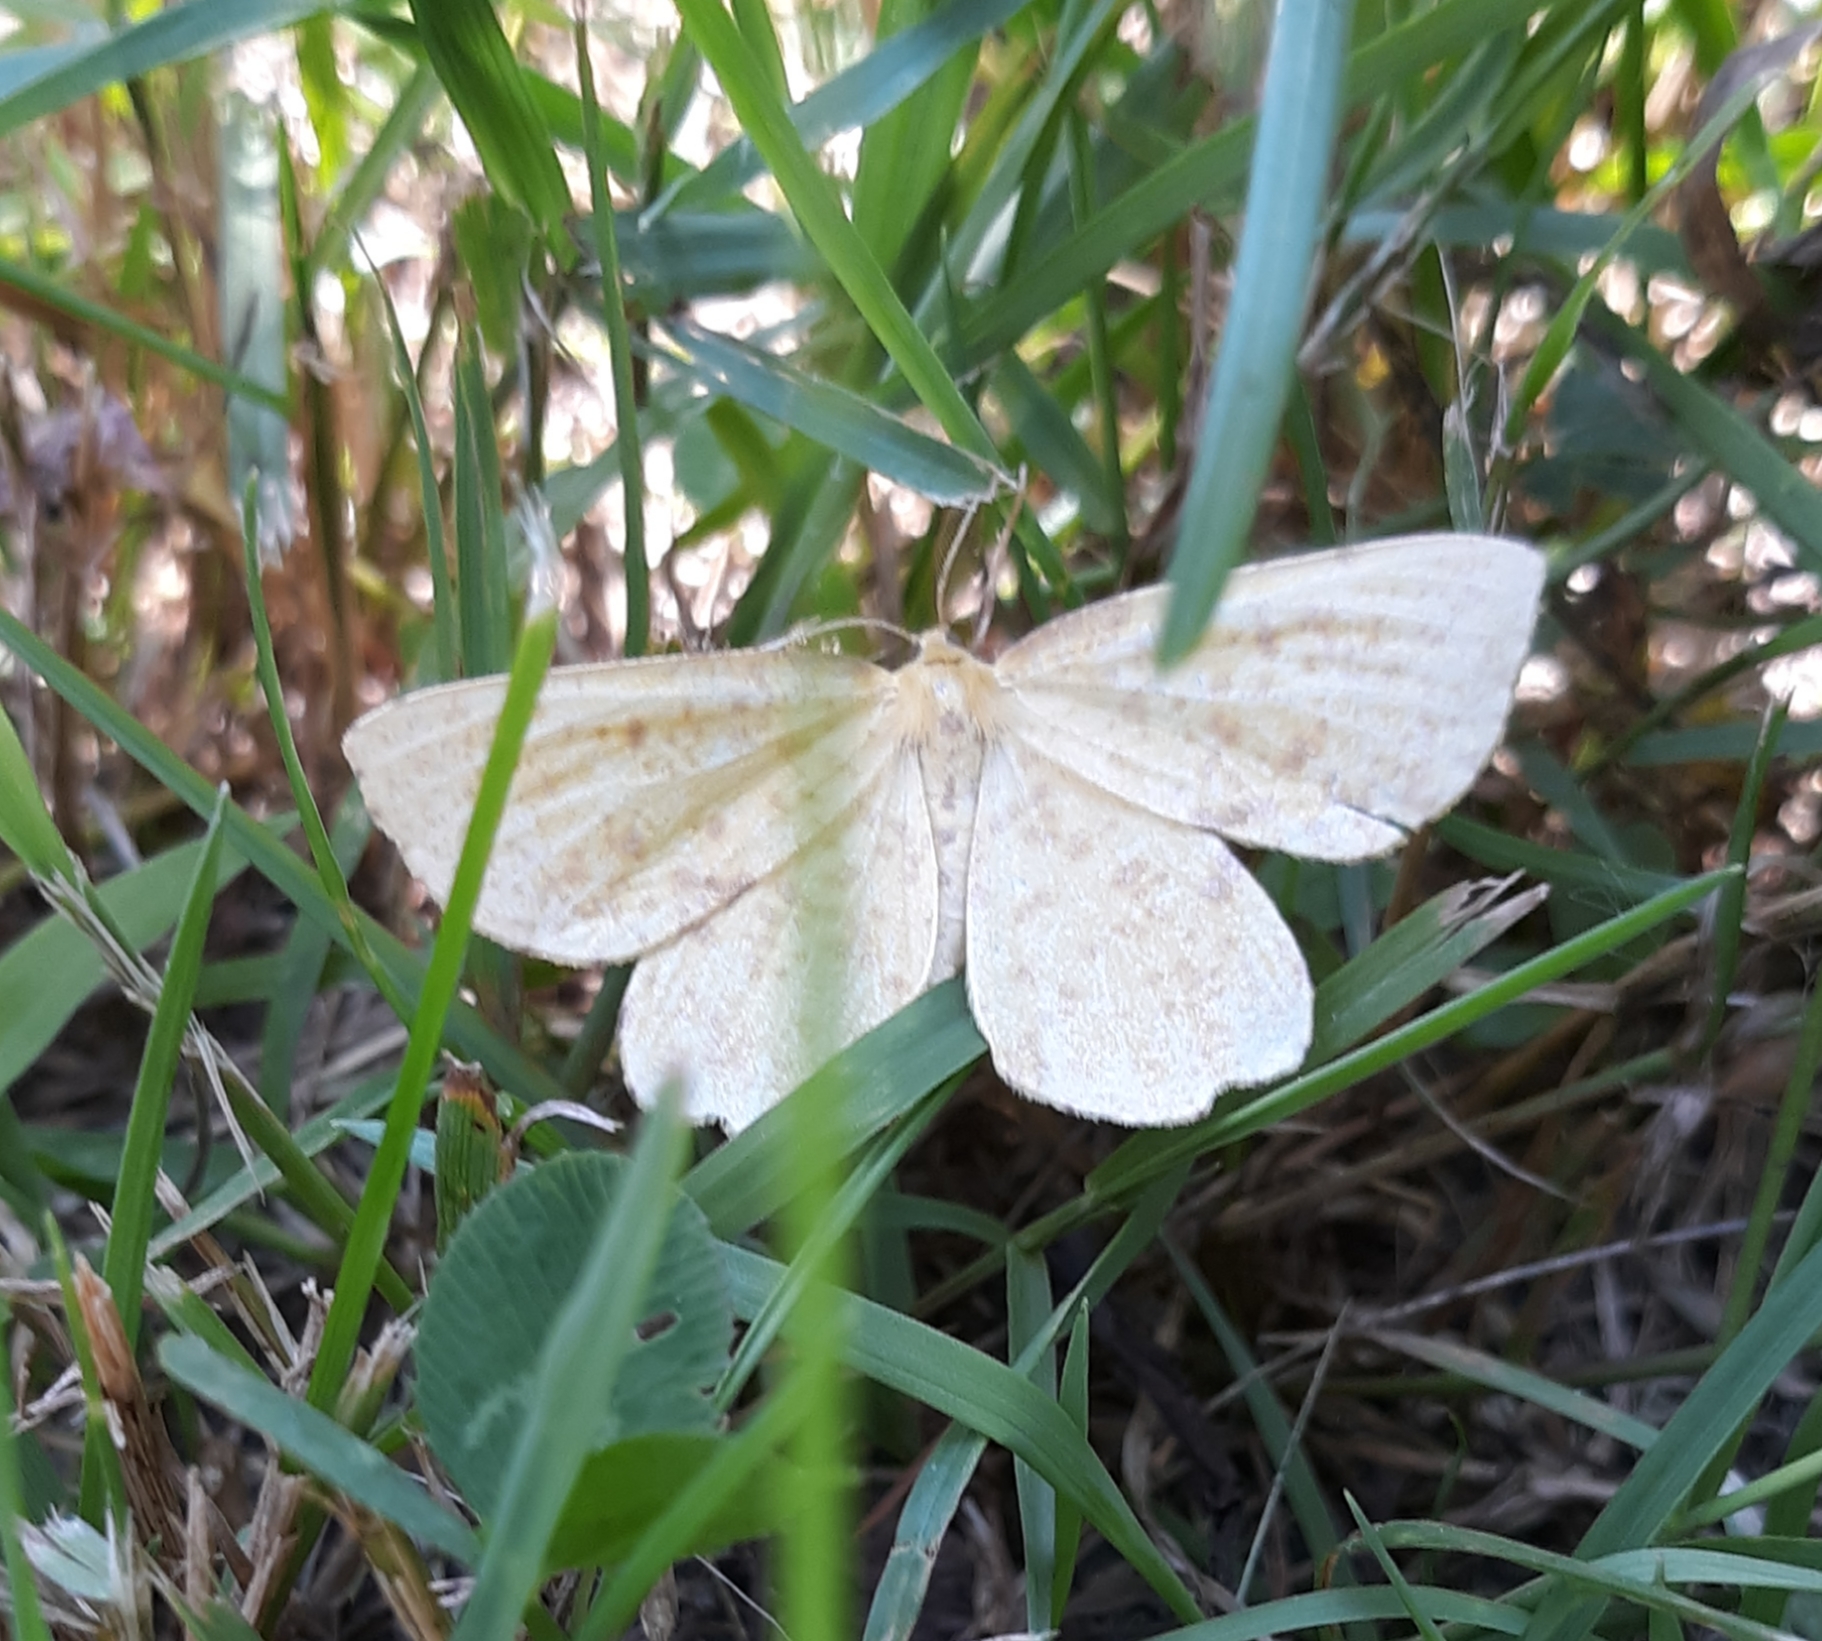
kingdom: Animalia
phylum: Arthropoda
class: Insecta
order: Lepidoptera
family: Geometridae
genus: Xanthotype
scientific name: Xanthotype
